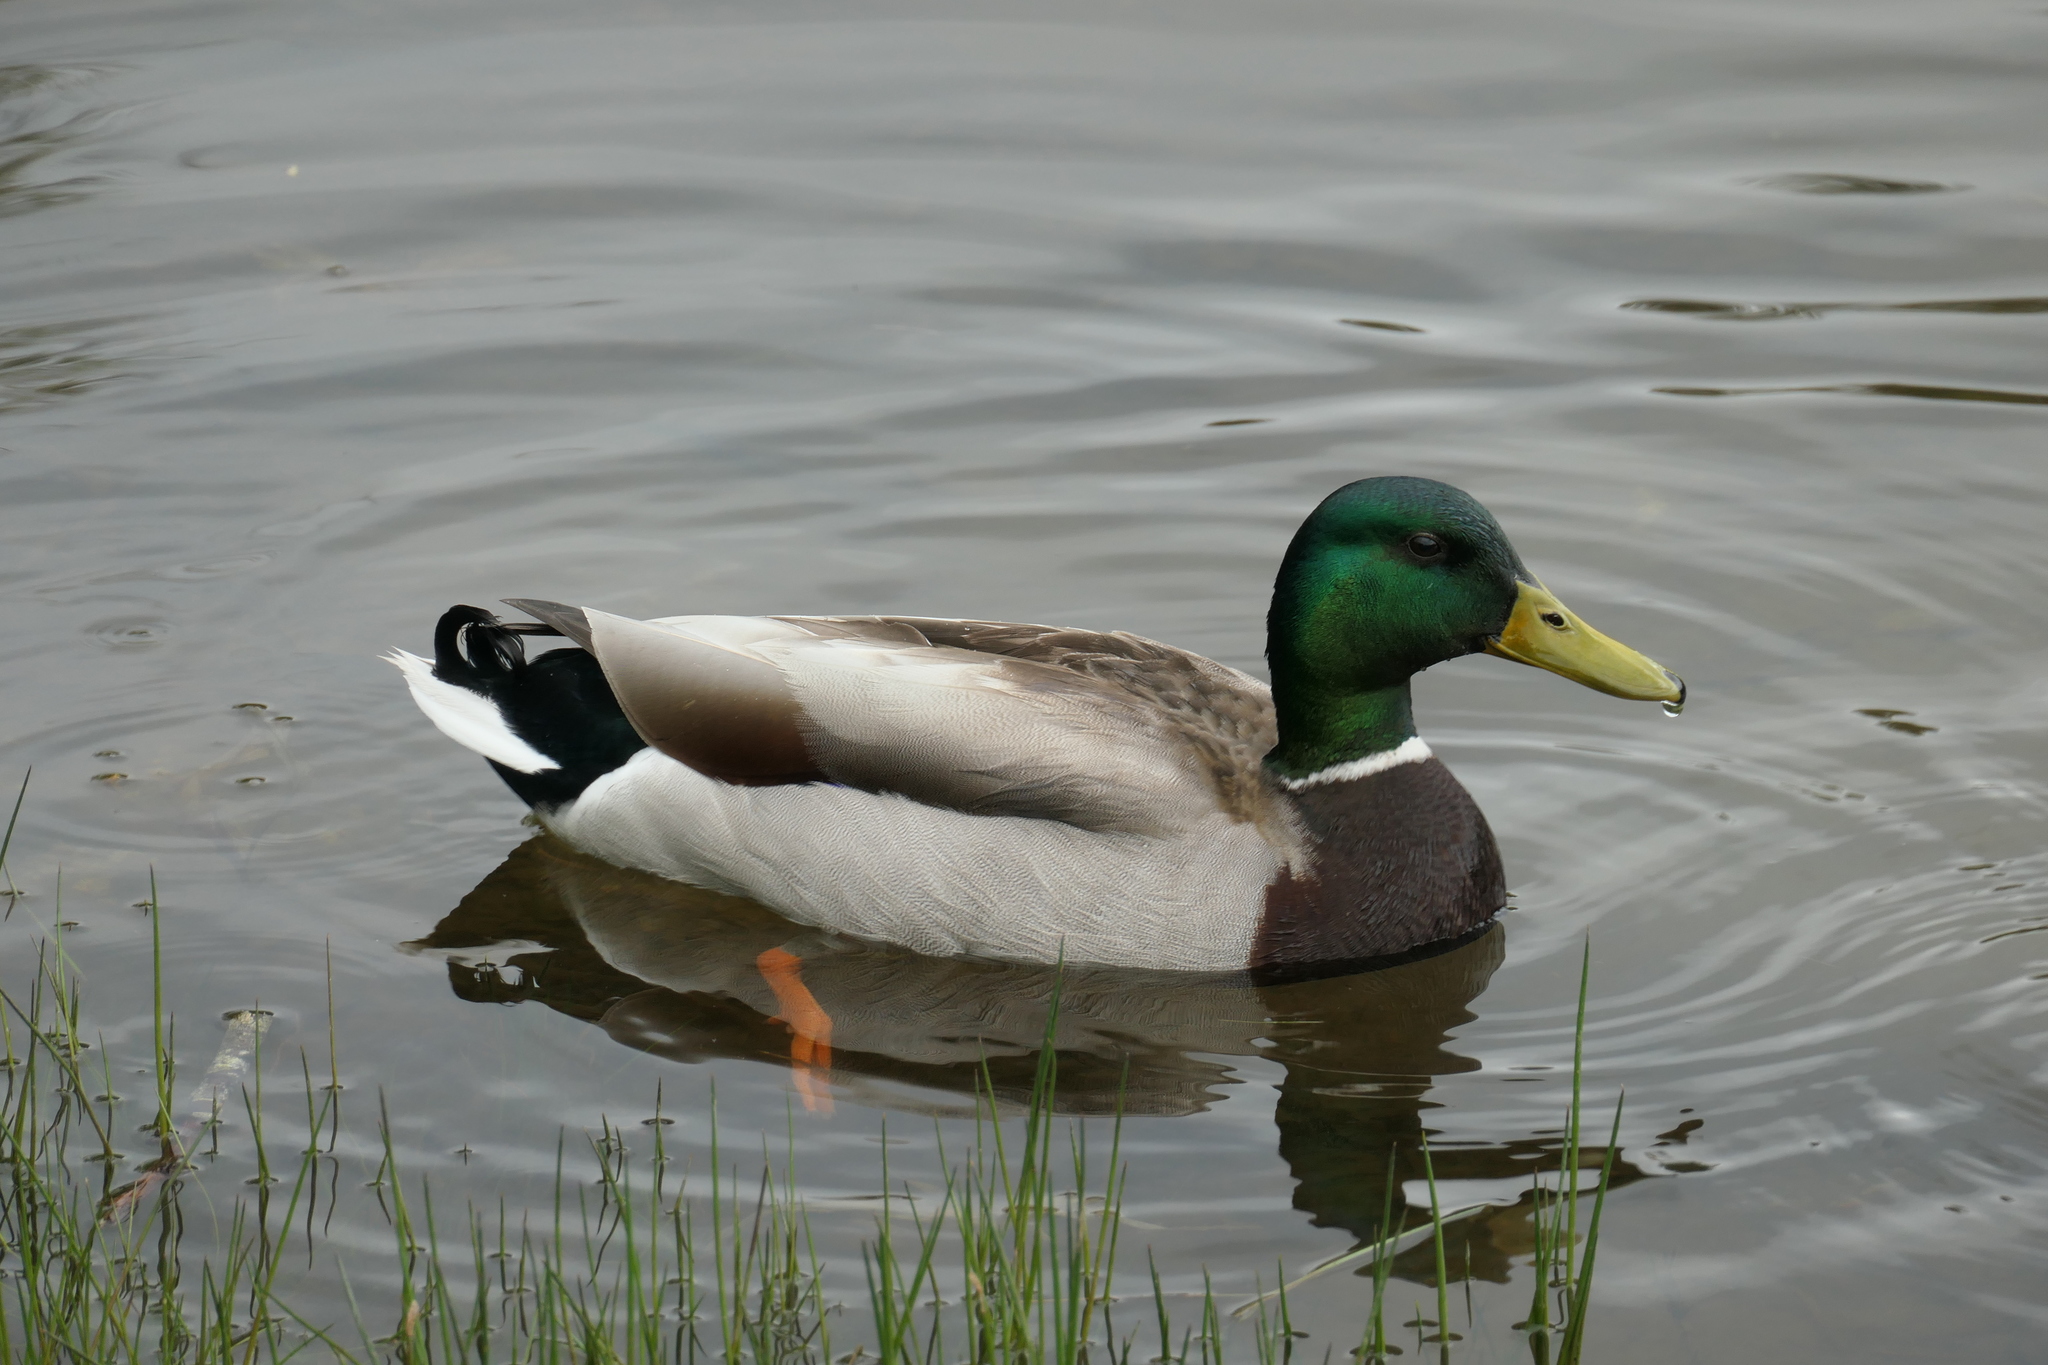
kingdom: Animalia
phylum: Chordata
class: Aves
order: Anseriformes
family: Anatidae
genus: Anas
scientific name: Anas platyrhynchos
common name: Mallard
